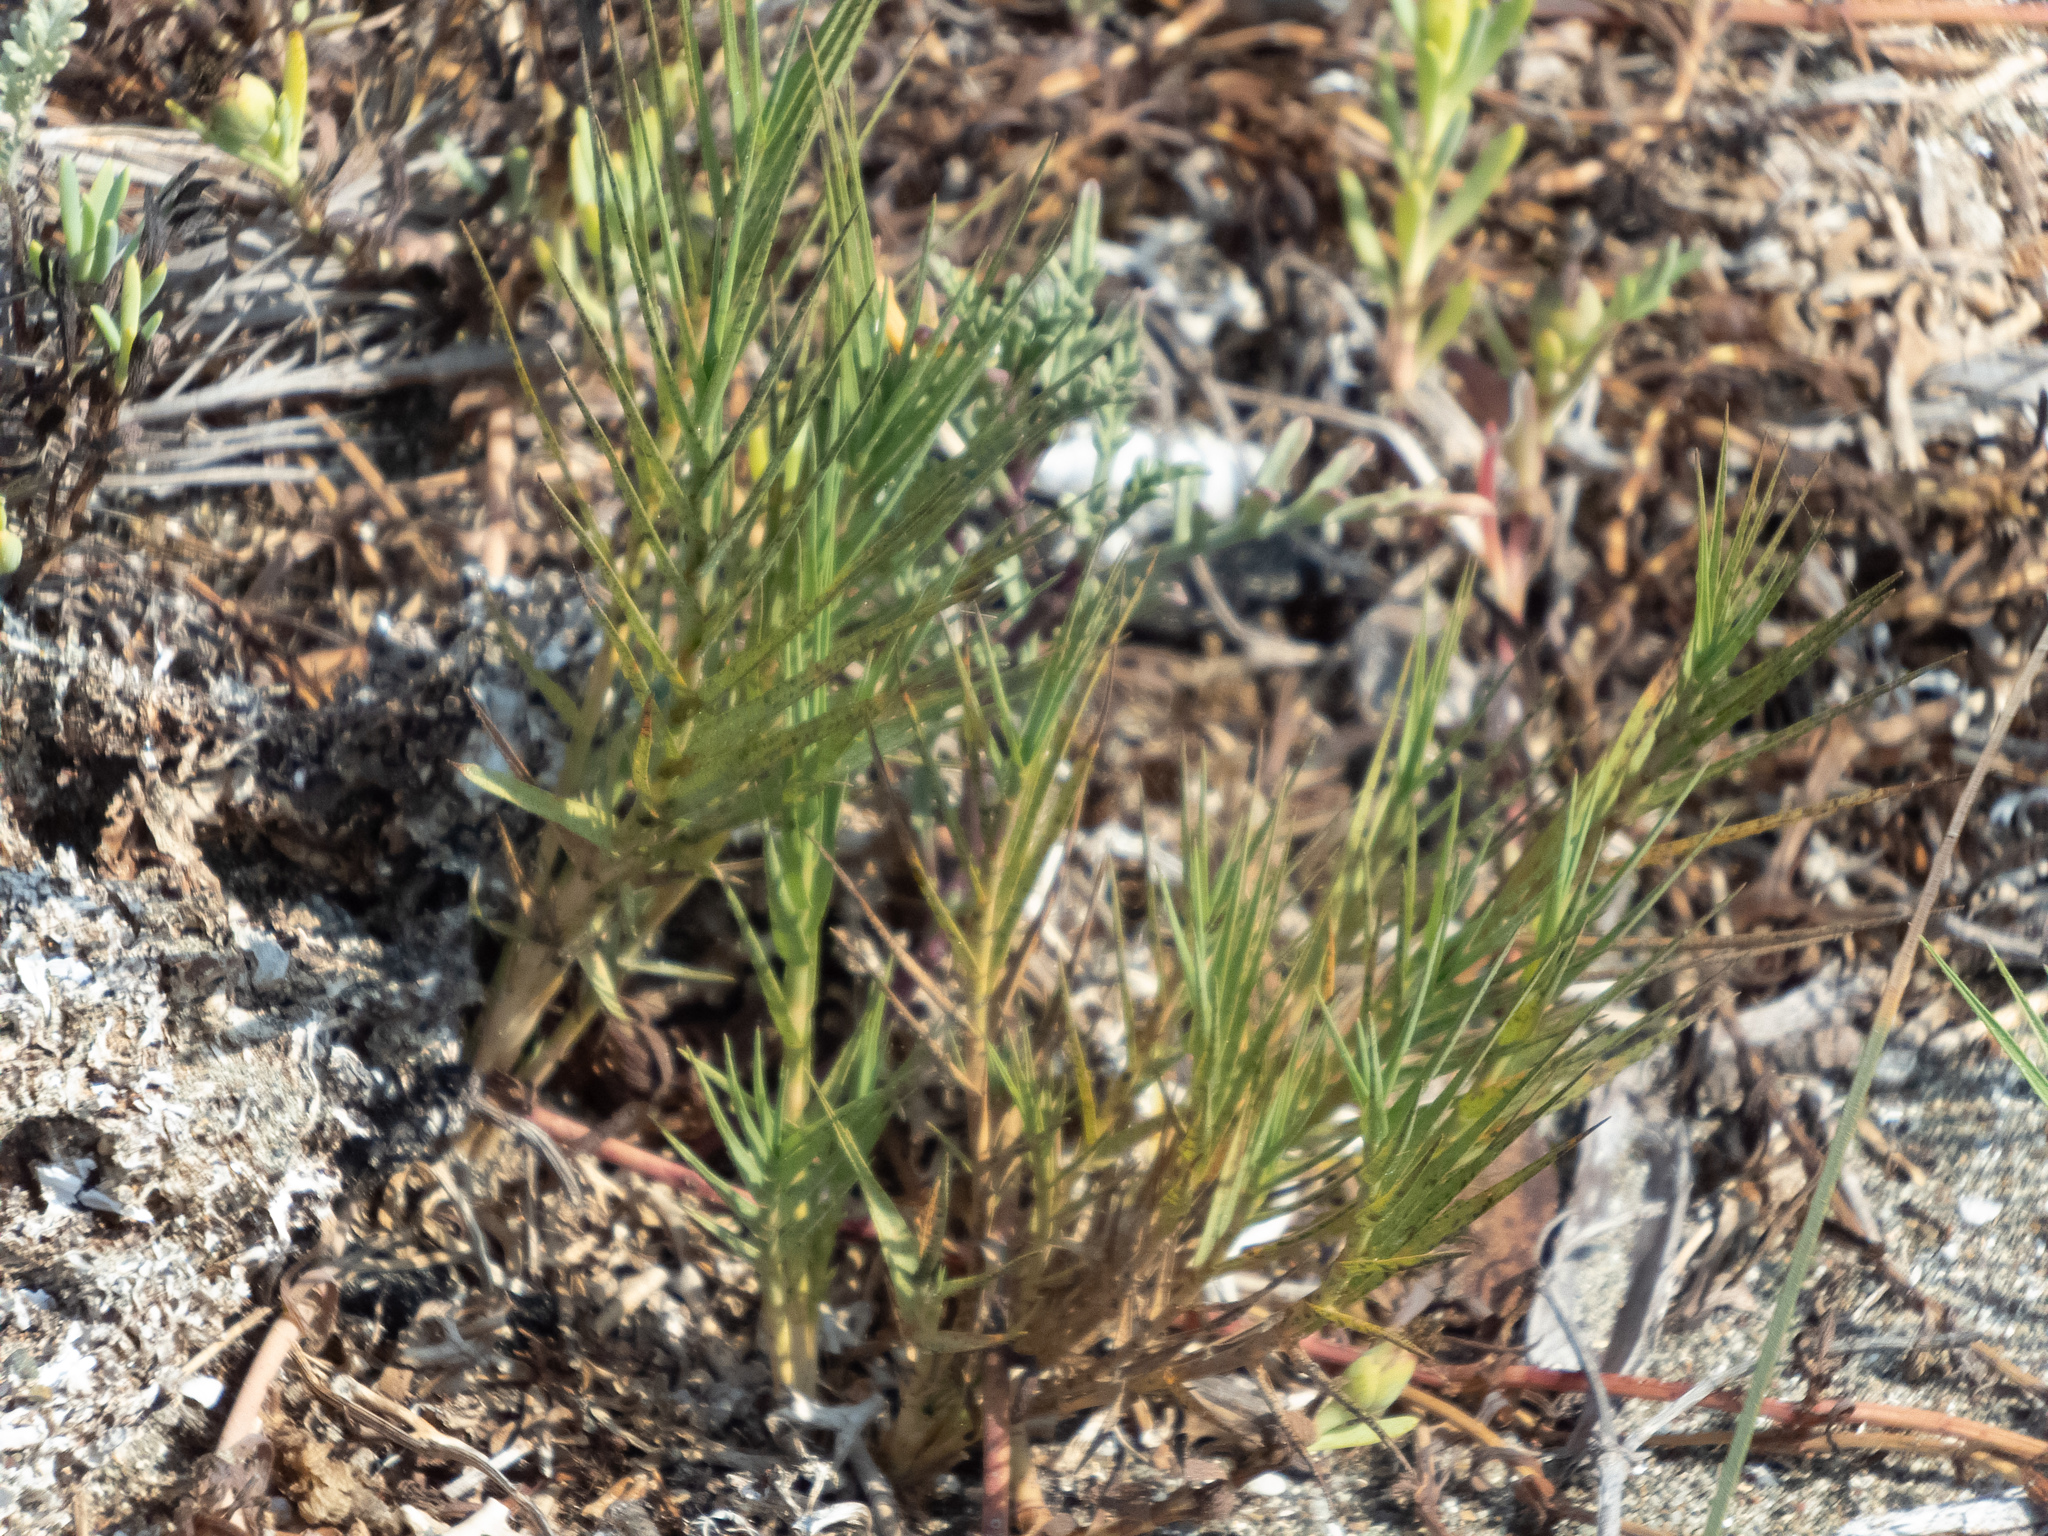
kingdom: Plantae
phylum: Tracheophyta
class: Liliopsida
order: Poales
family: Poaceae
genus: Distichlis
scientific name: Distichlis spicata
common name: Saltgrass
